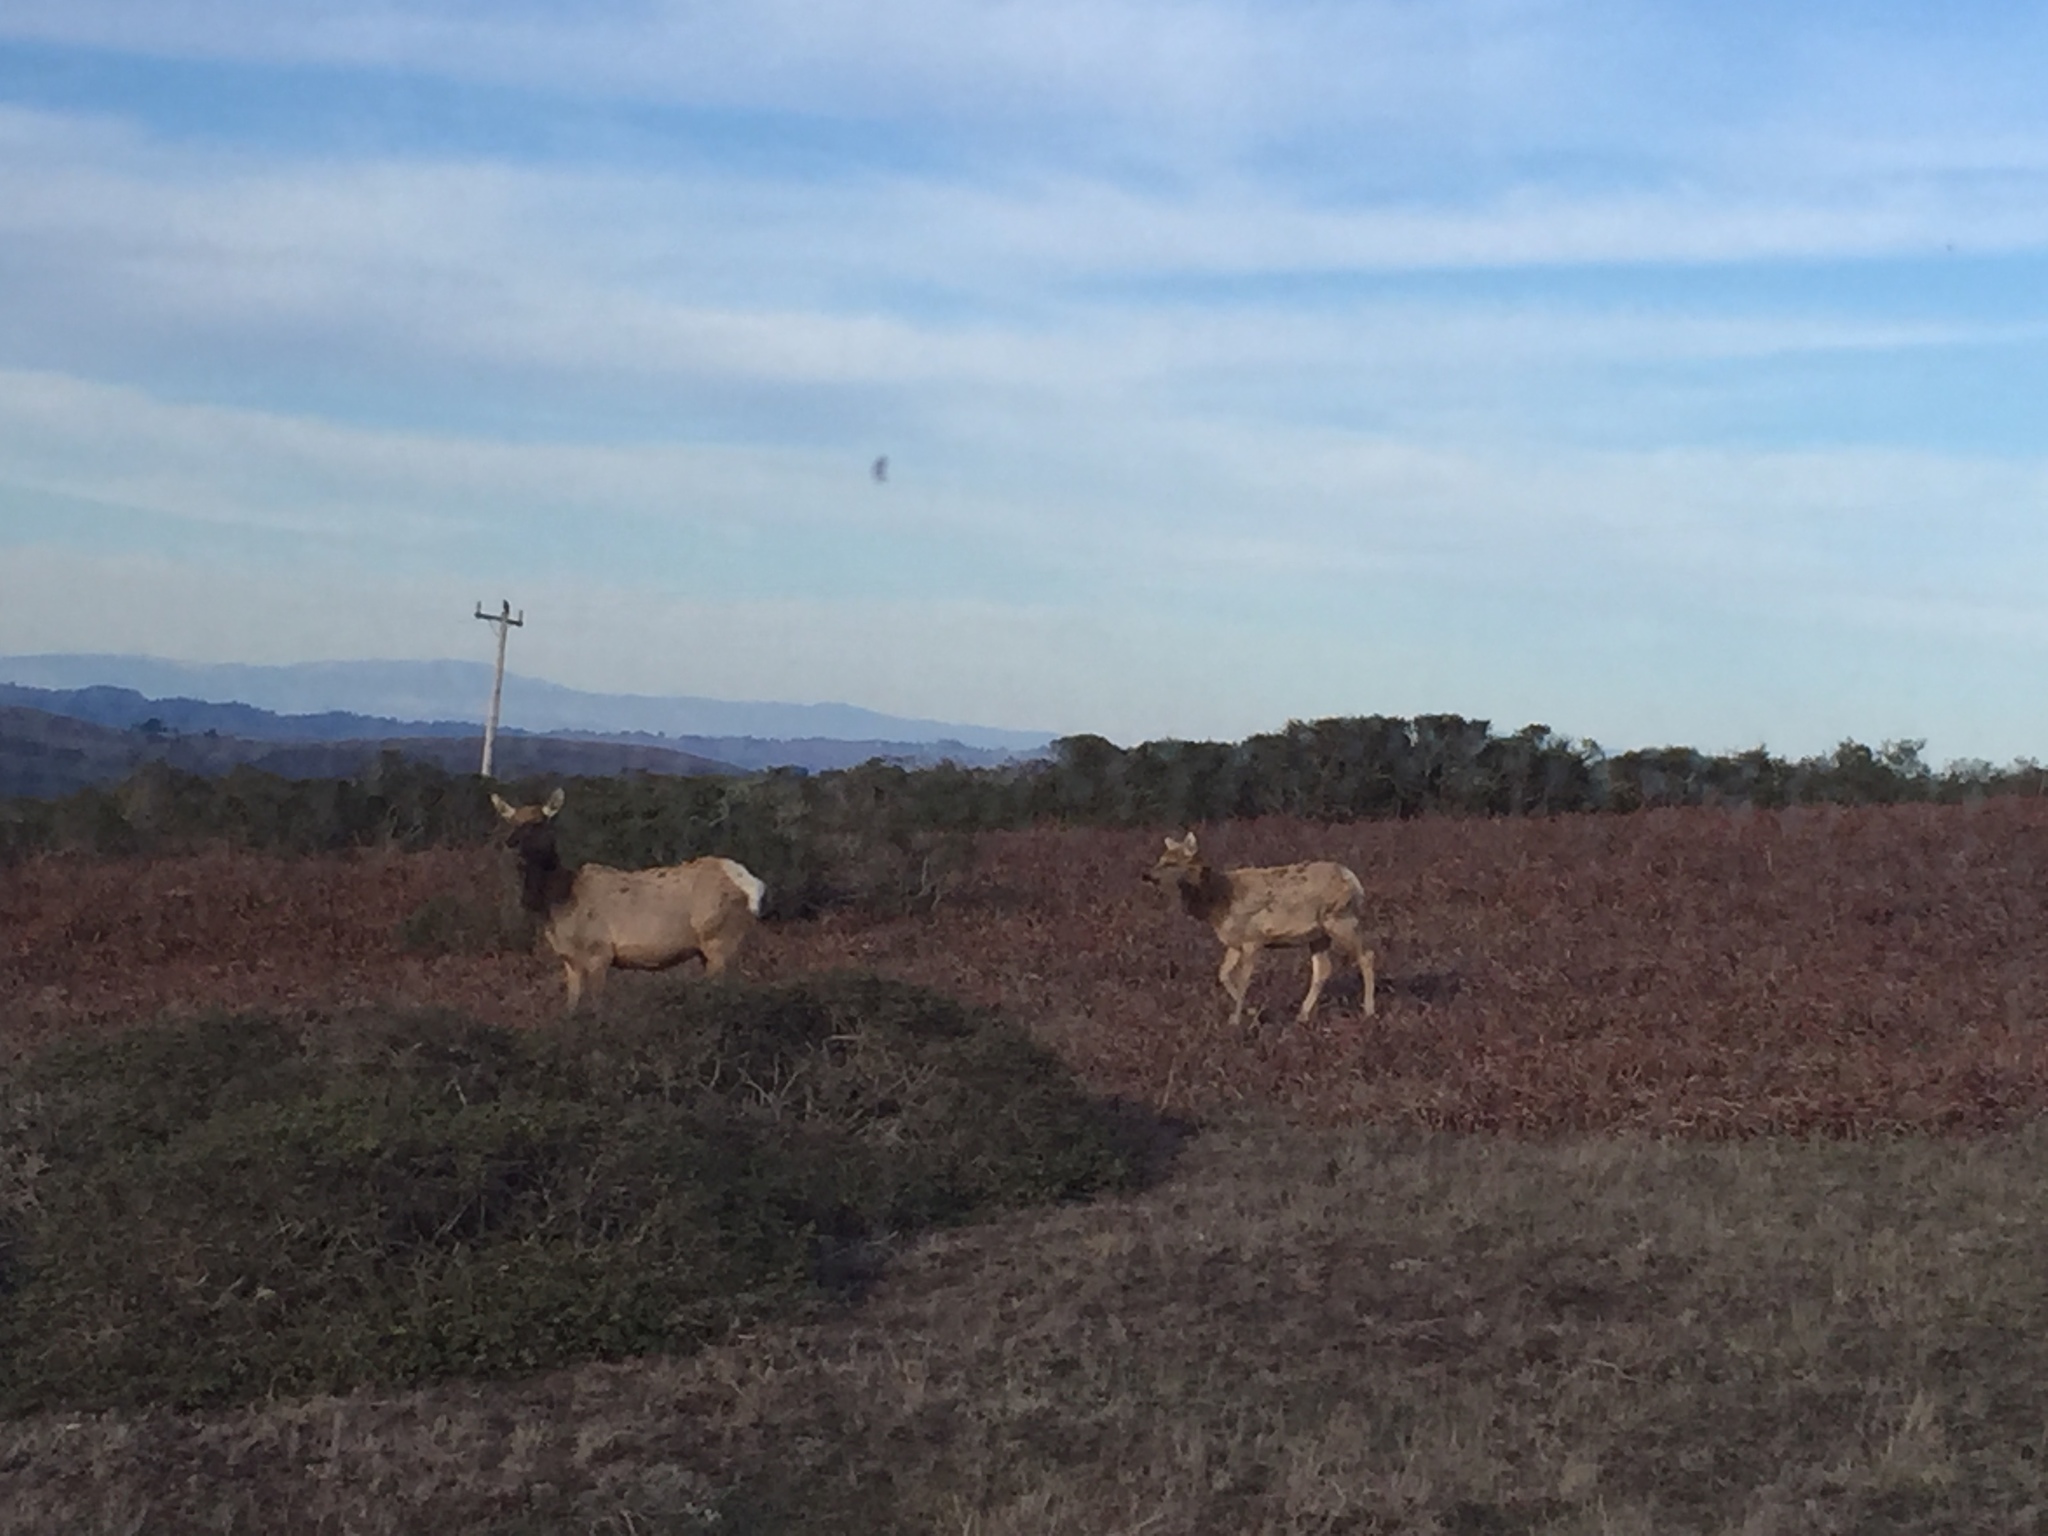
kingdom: Animalia
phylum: Chordata
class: Mammalia
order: Artiodactyla
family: Cervidae
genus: Cervus
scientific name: Cervus elaphus
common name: Red deer
